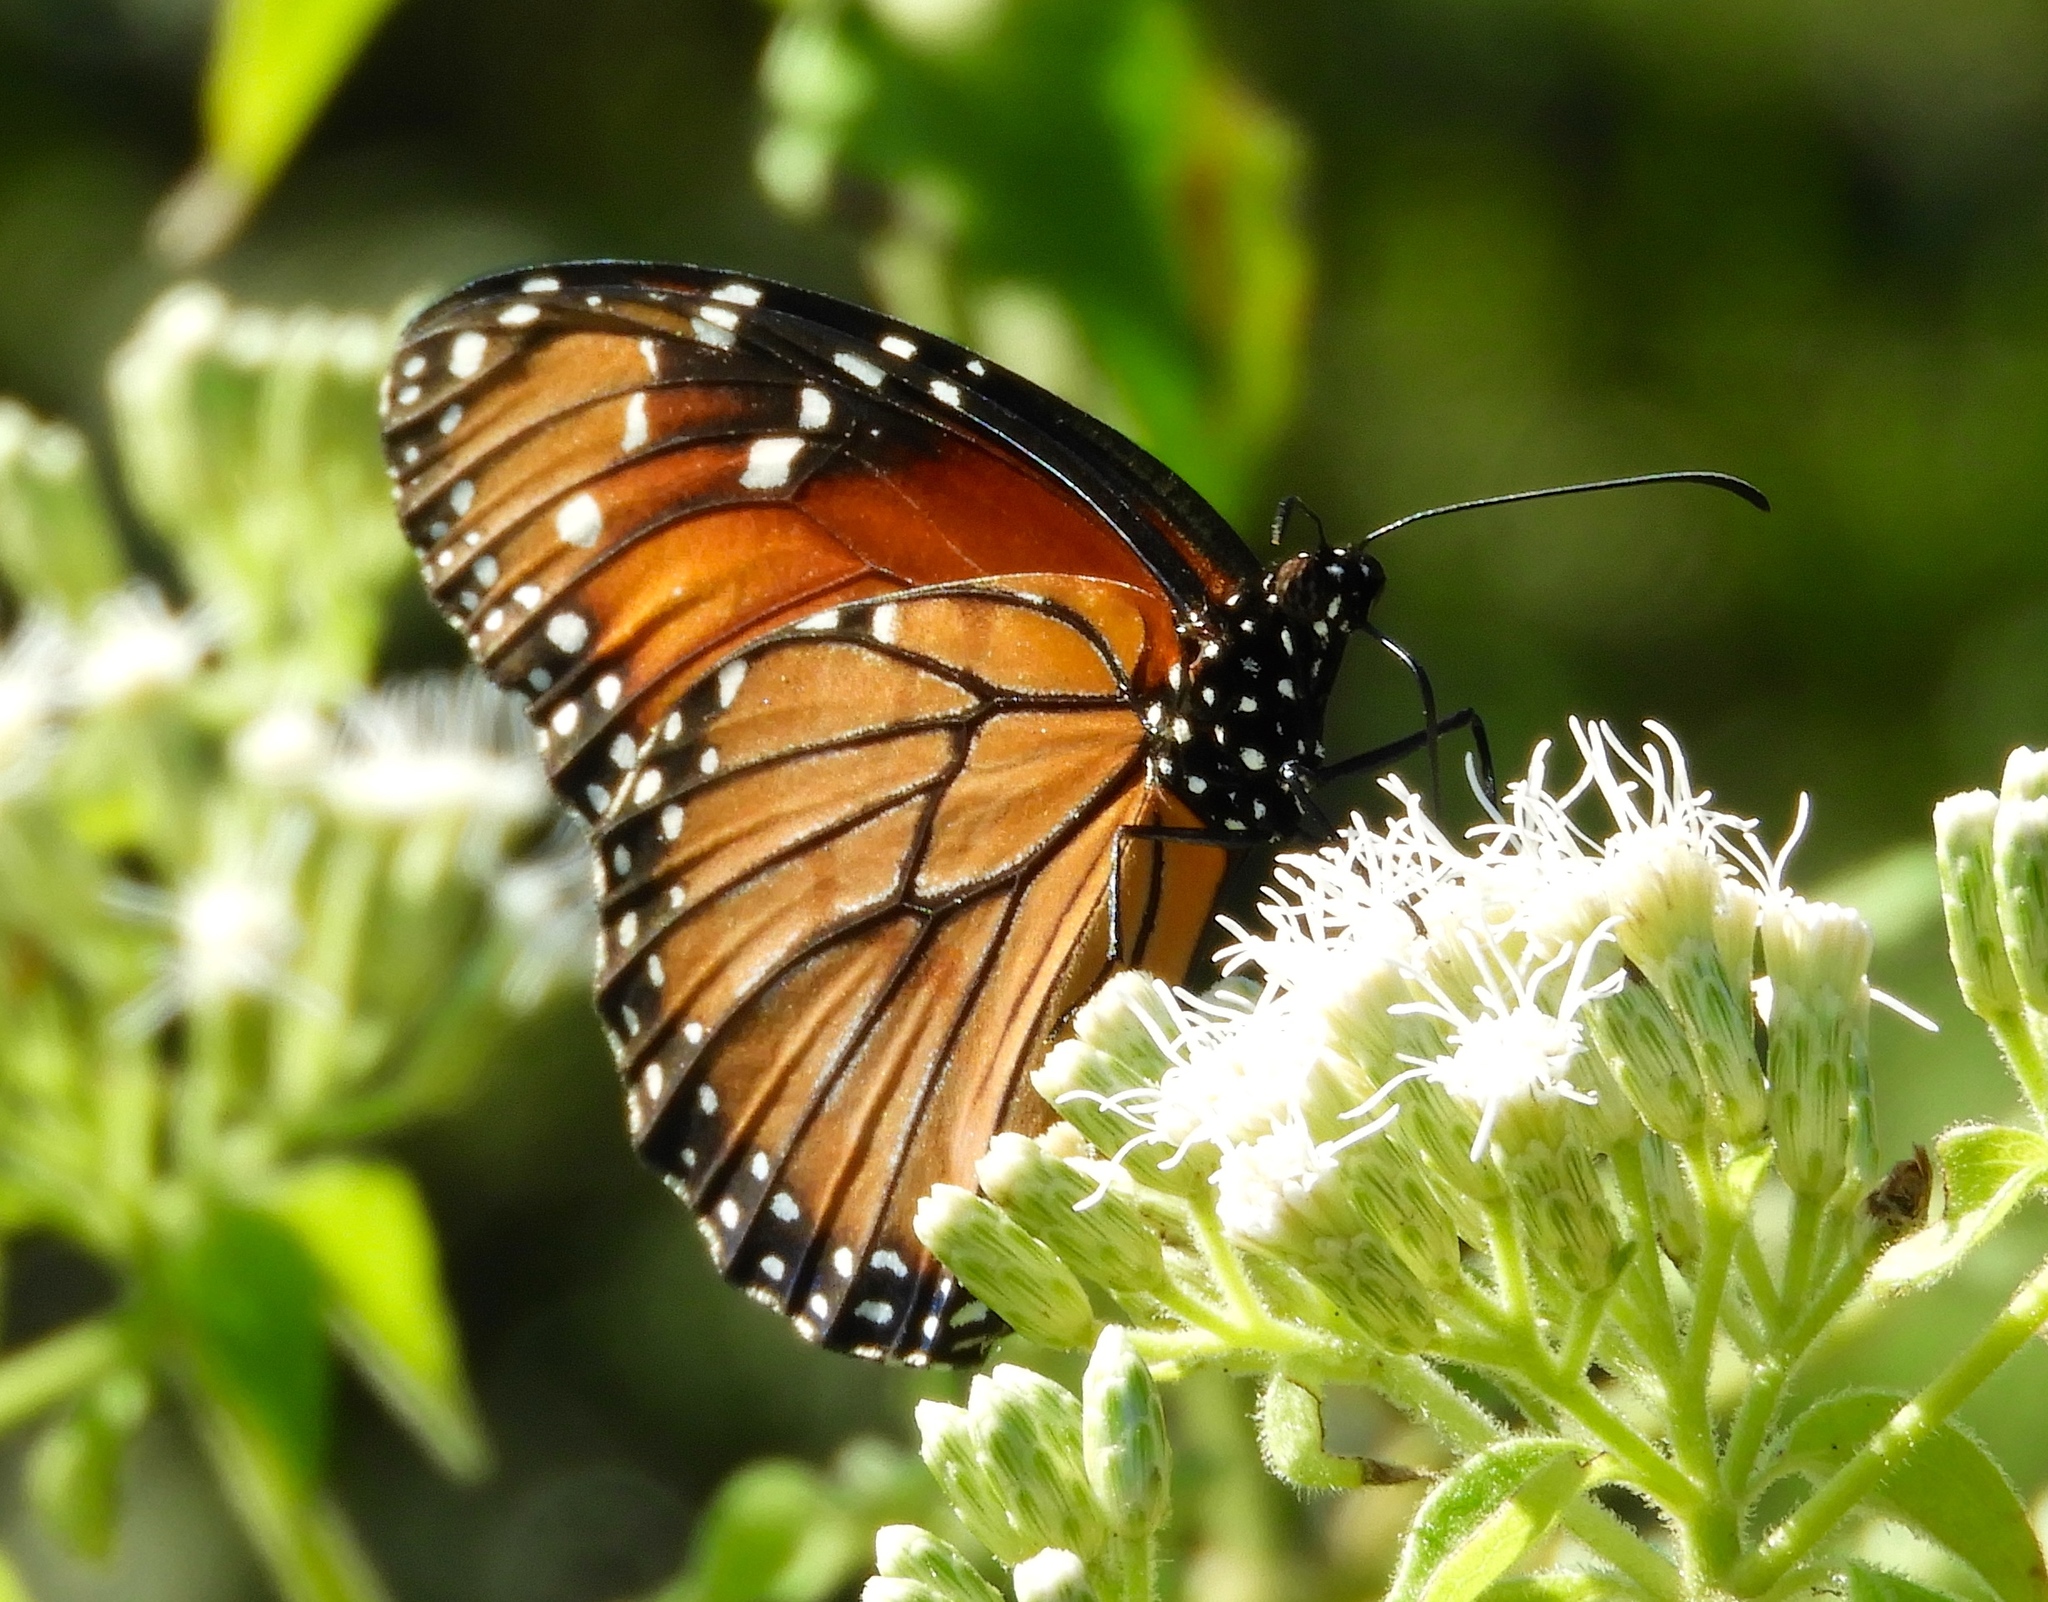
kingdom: Animalia
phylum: Arthropoda
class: Insecta
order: Lepidoptera
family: Nymphalidae
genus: Danaus
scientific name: Danaus eresimus
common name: Soldier
